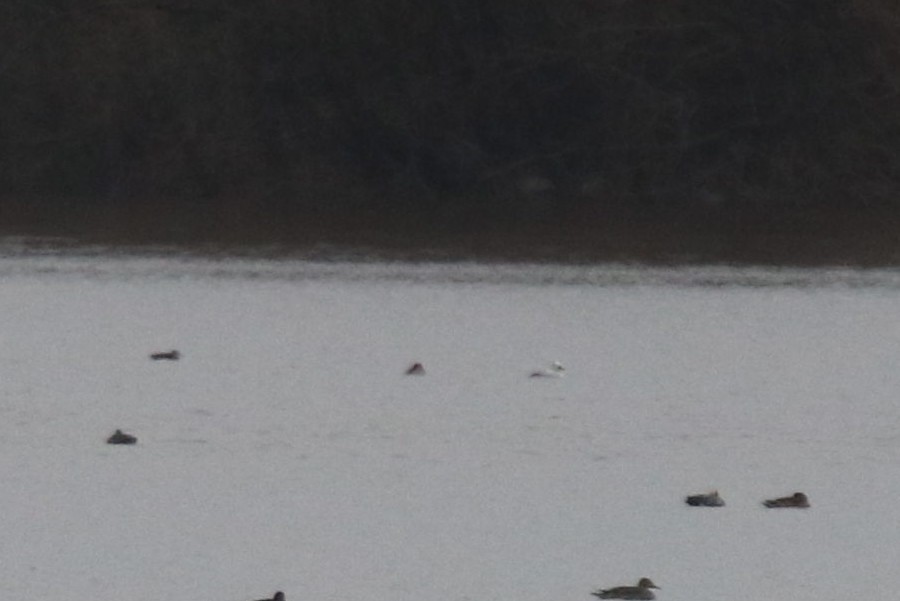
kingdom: Animalia
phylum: Chordata
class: Aves
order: Anseriformes
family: Anatidae
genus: Mergellus
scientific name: Mergellus albellus
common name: Smew
